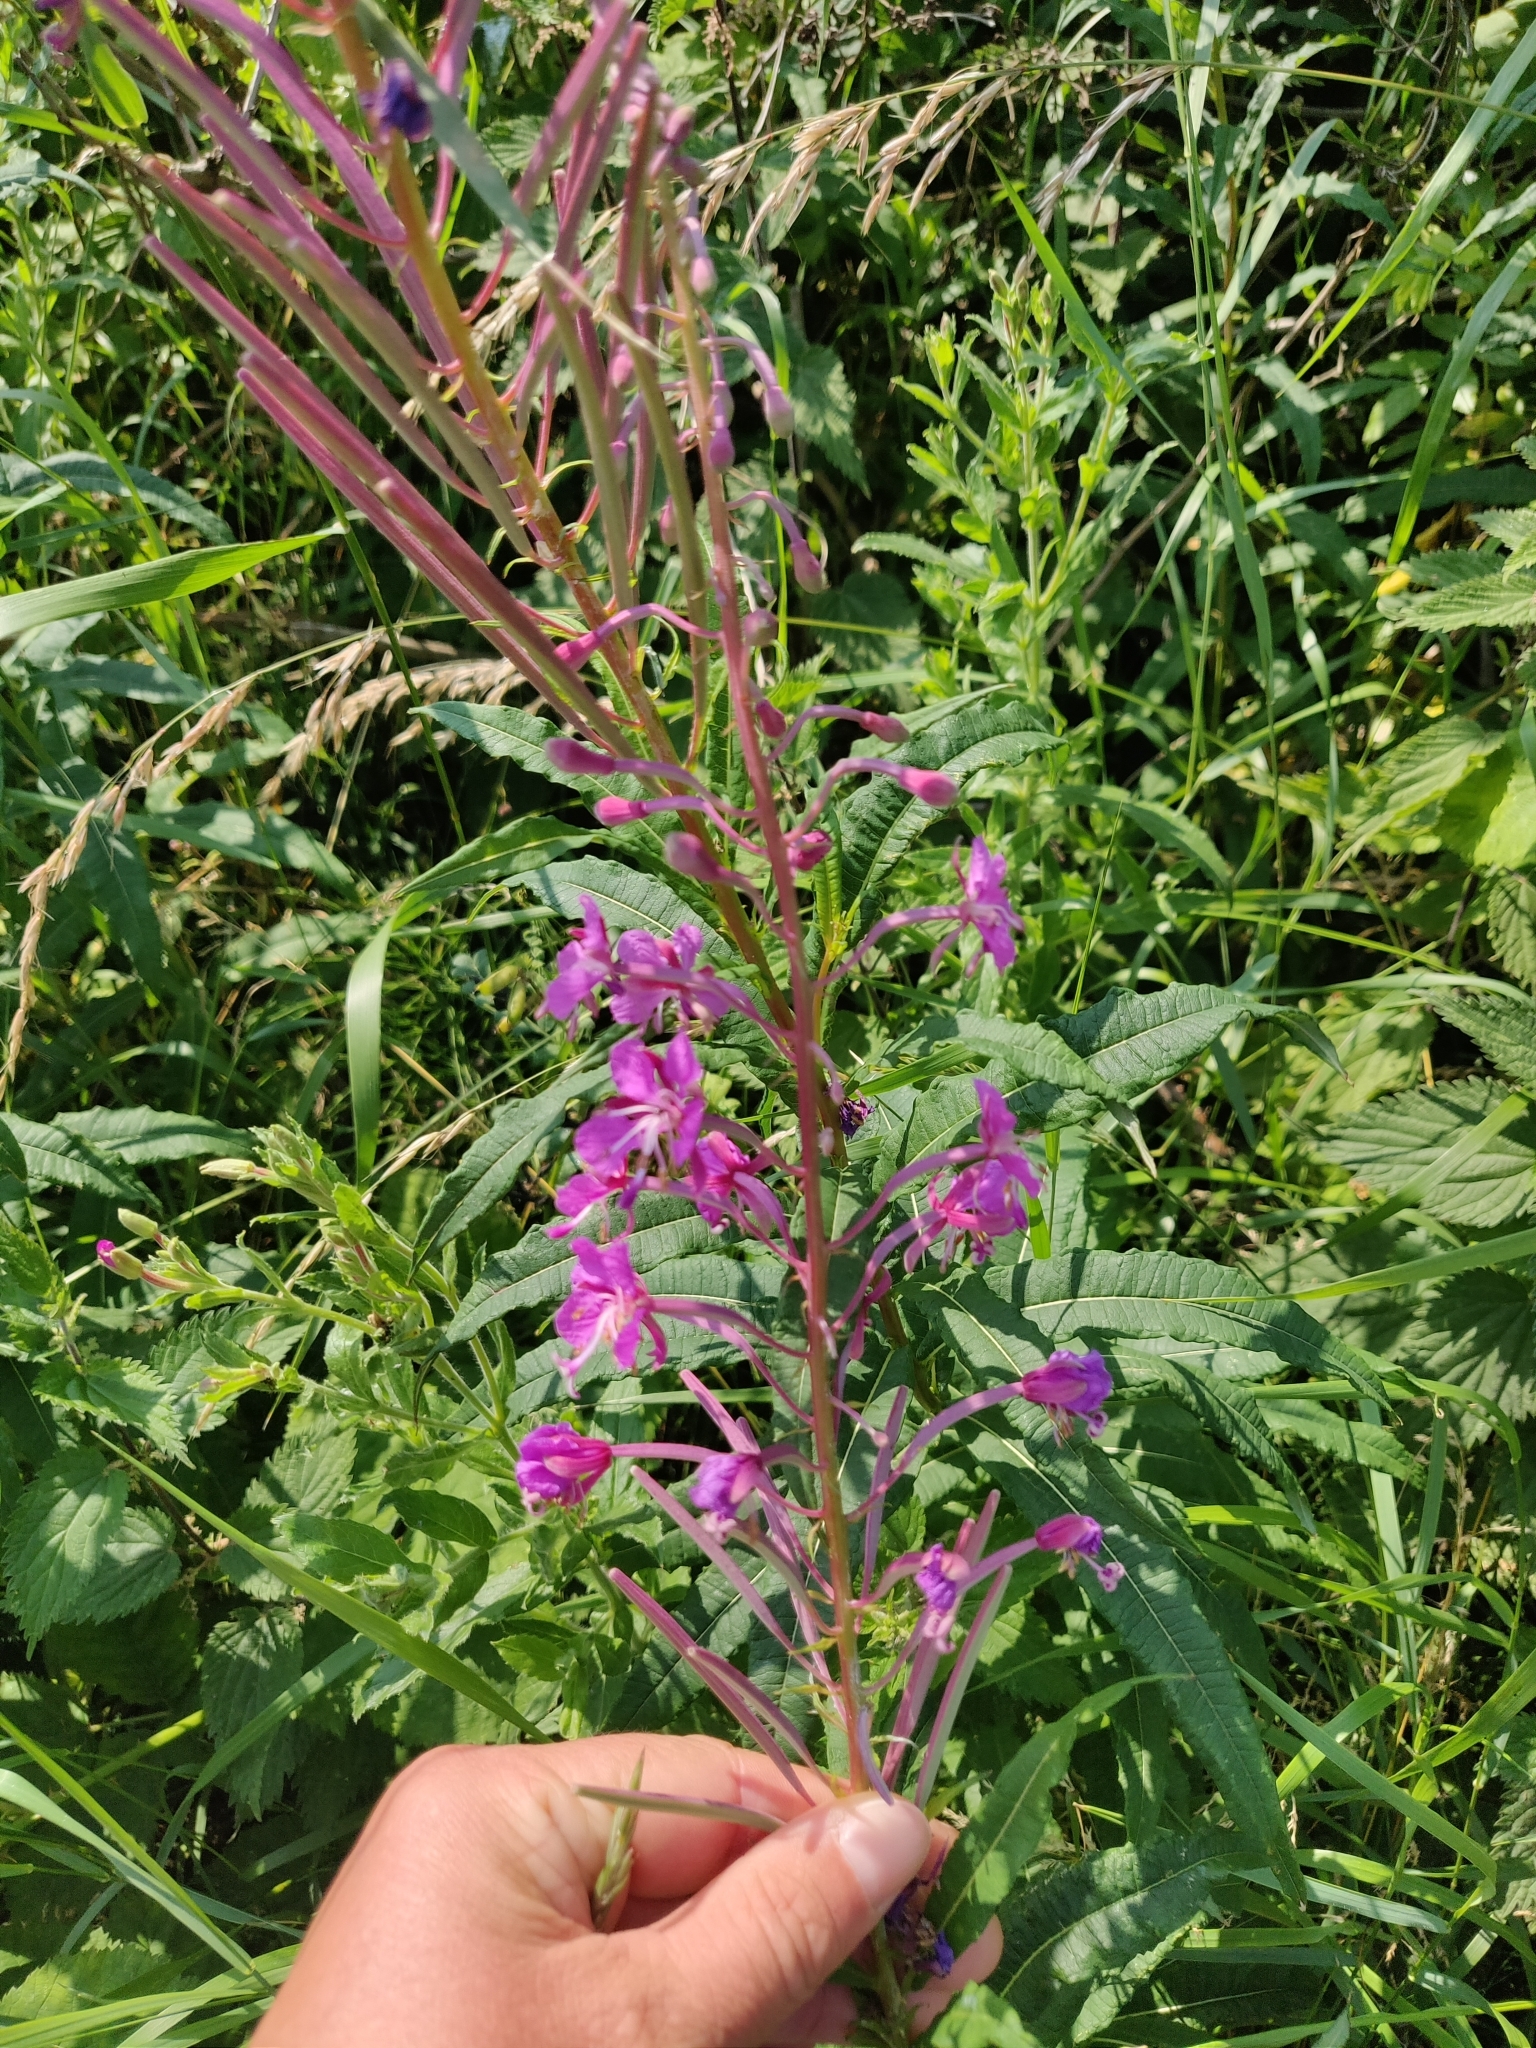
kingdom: Plantae
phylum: Tracheophyta
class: Magnoliopsida
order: Myrtales
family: Onagraceae
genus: Chamaenerion
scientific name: Chamaenerion angustifolium
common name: Fireweed
